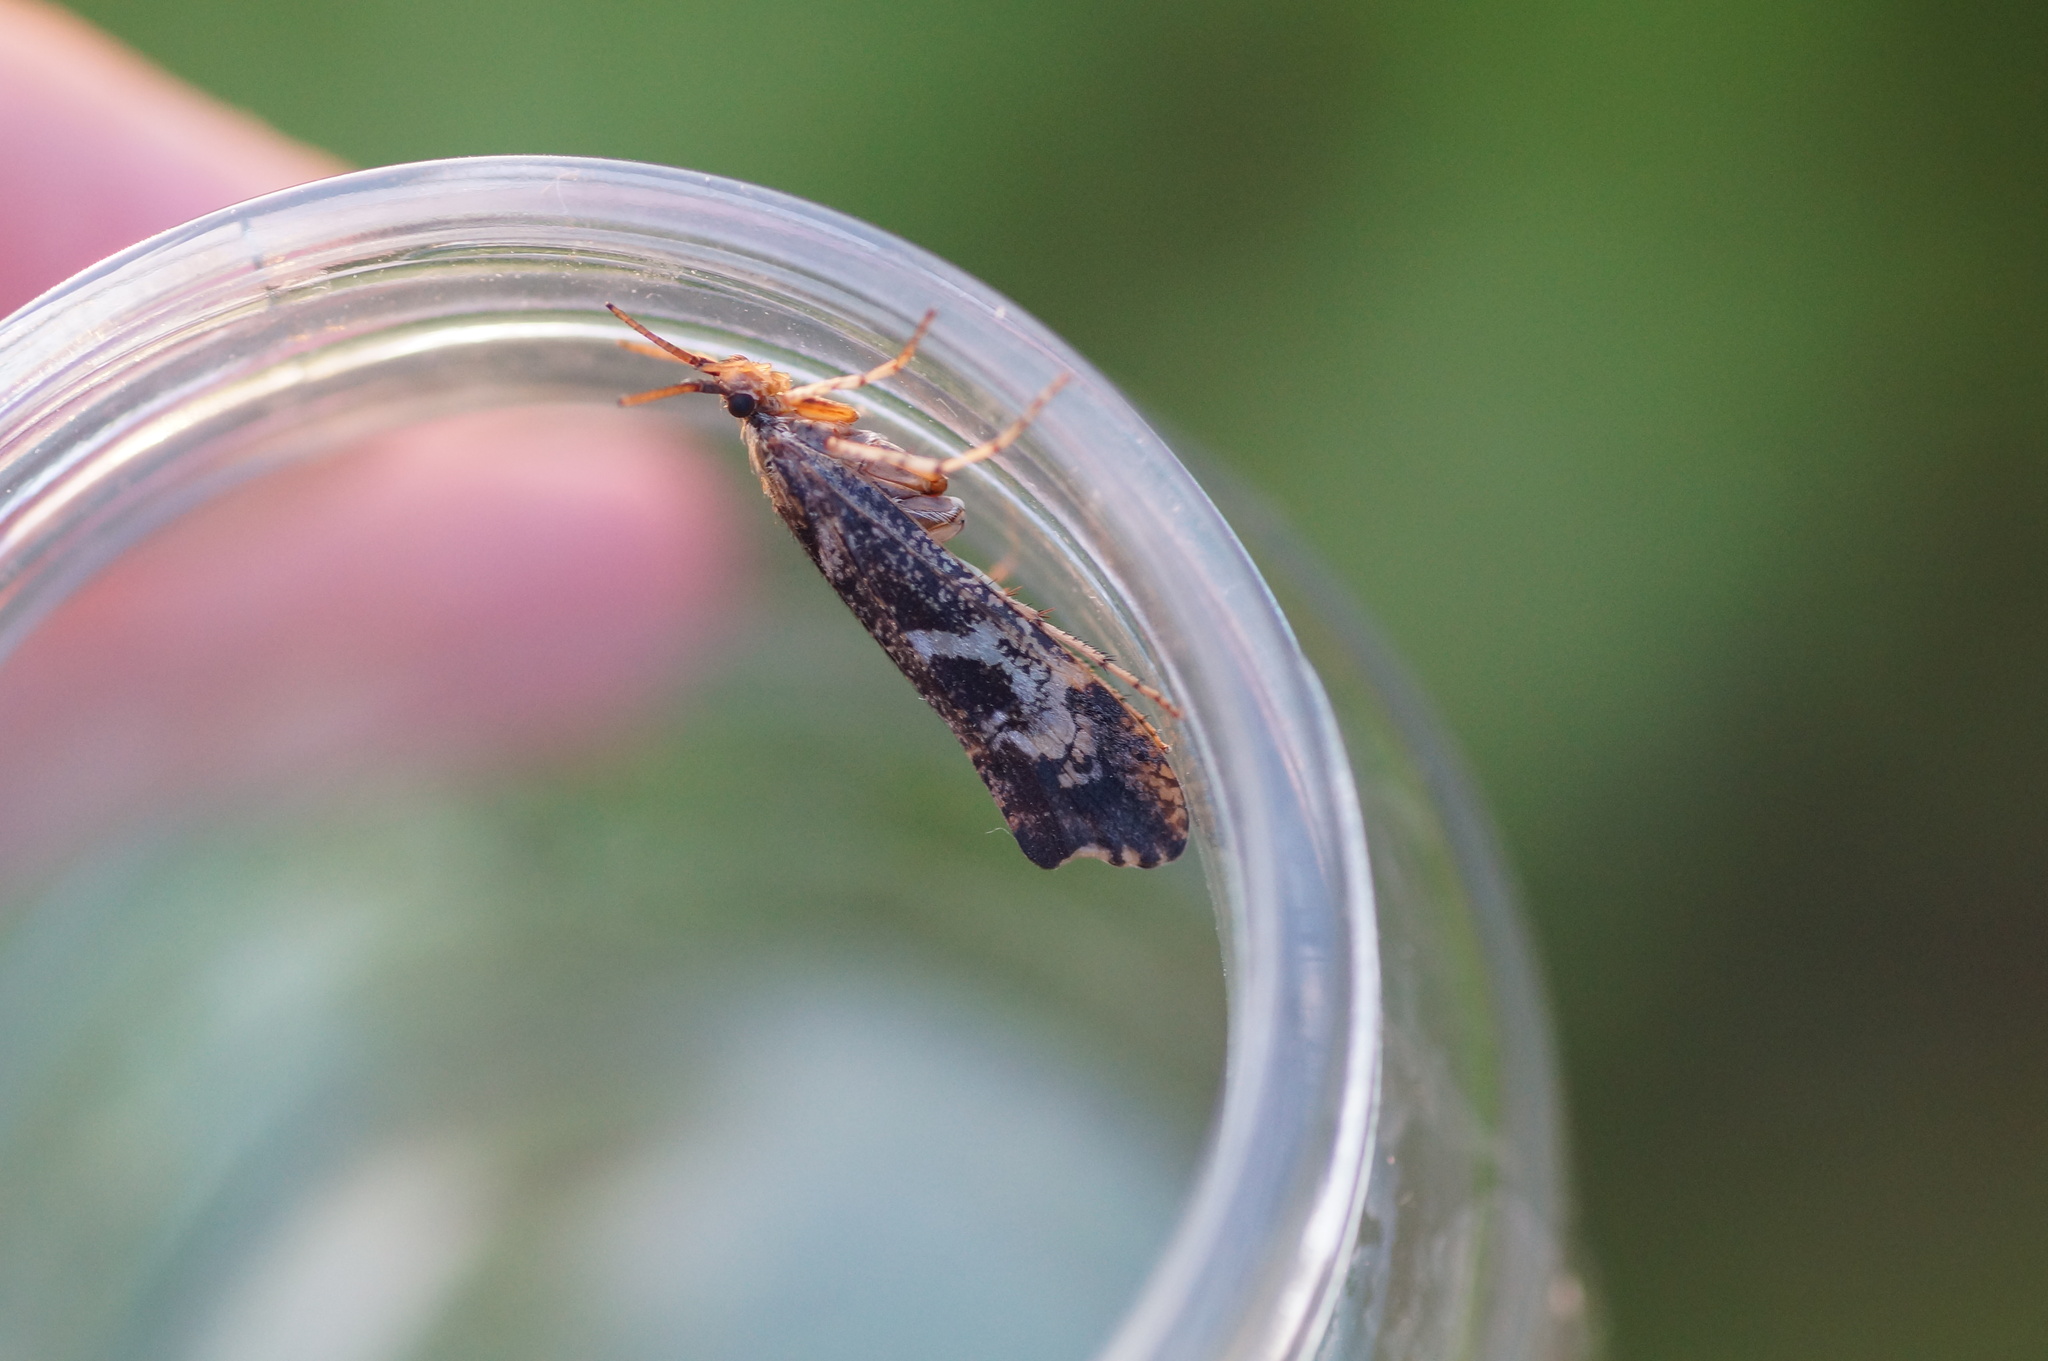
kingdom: Animalia
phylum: Arthropoda
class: Insecta
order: Trichoptera
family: Limnephilidae
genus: Glyphotaelius
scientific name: Glyphotaelius pellucidus
